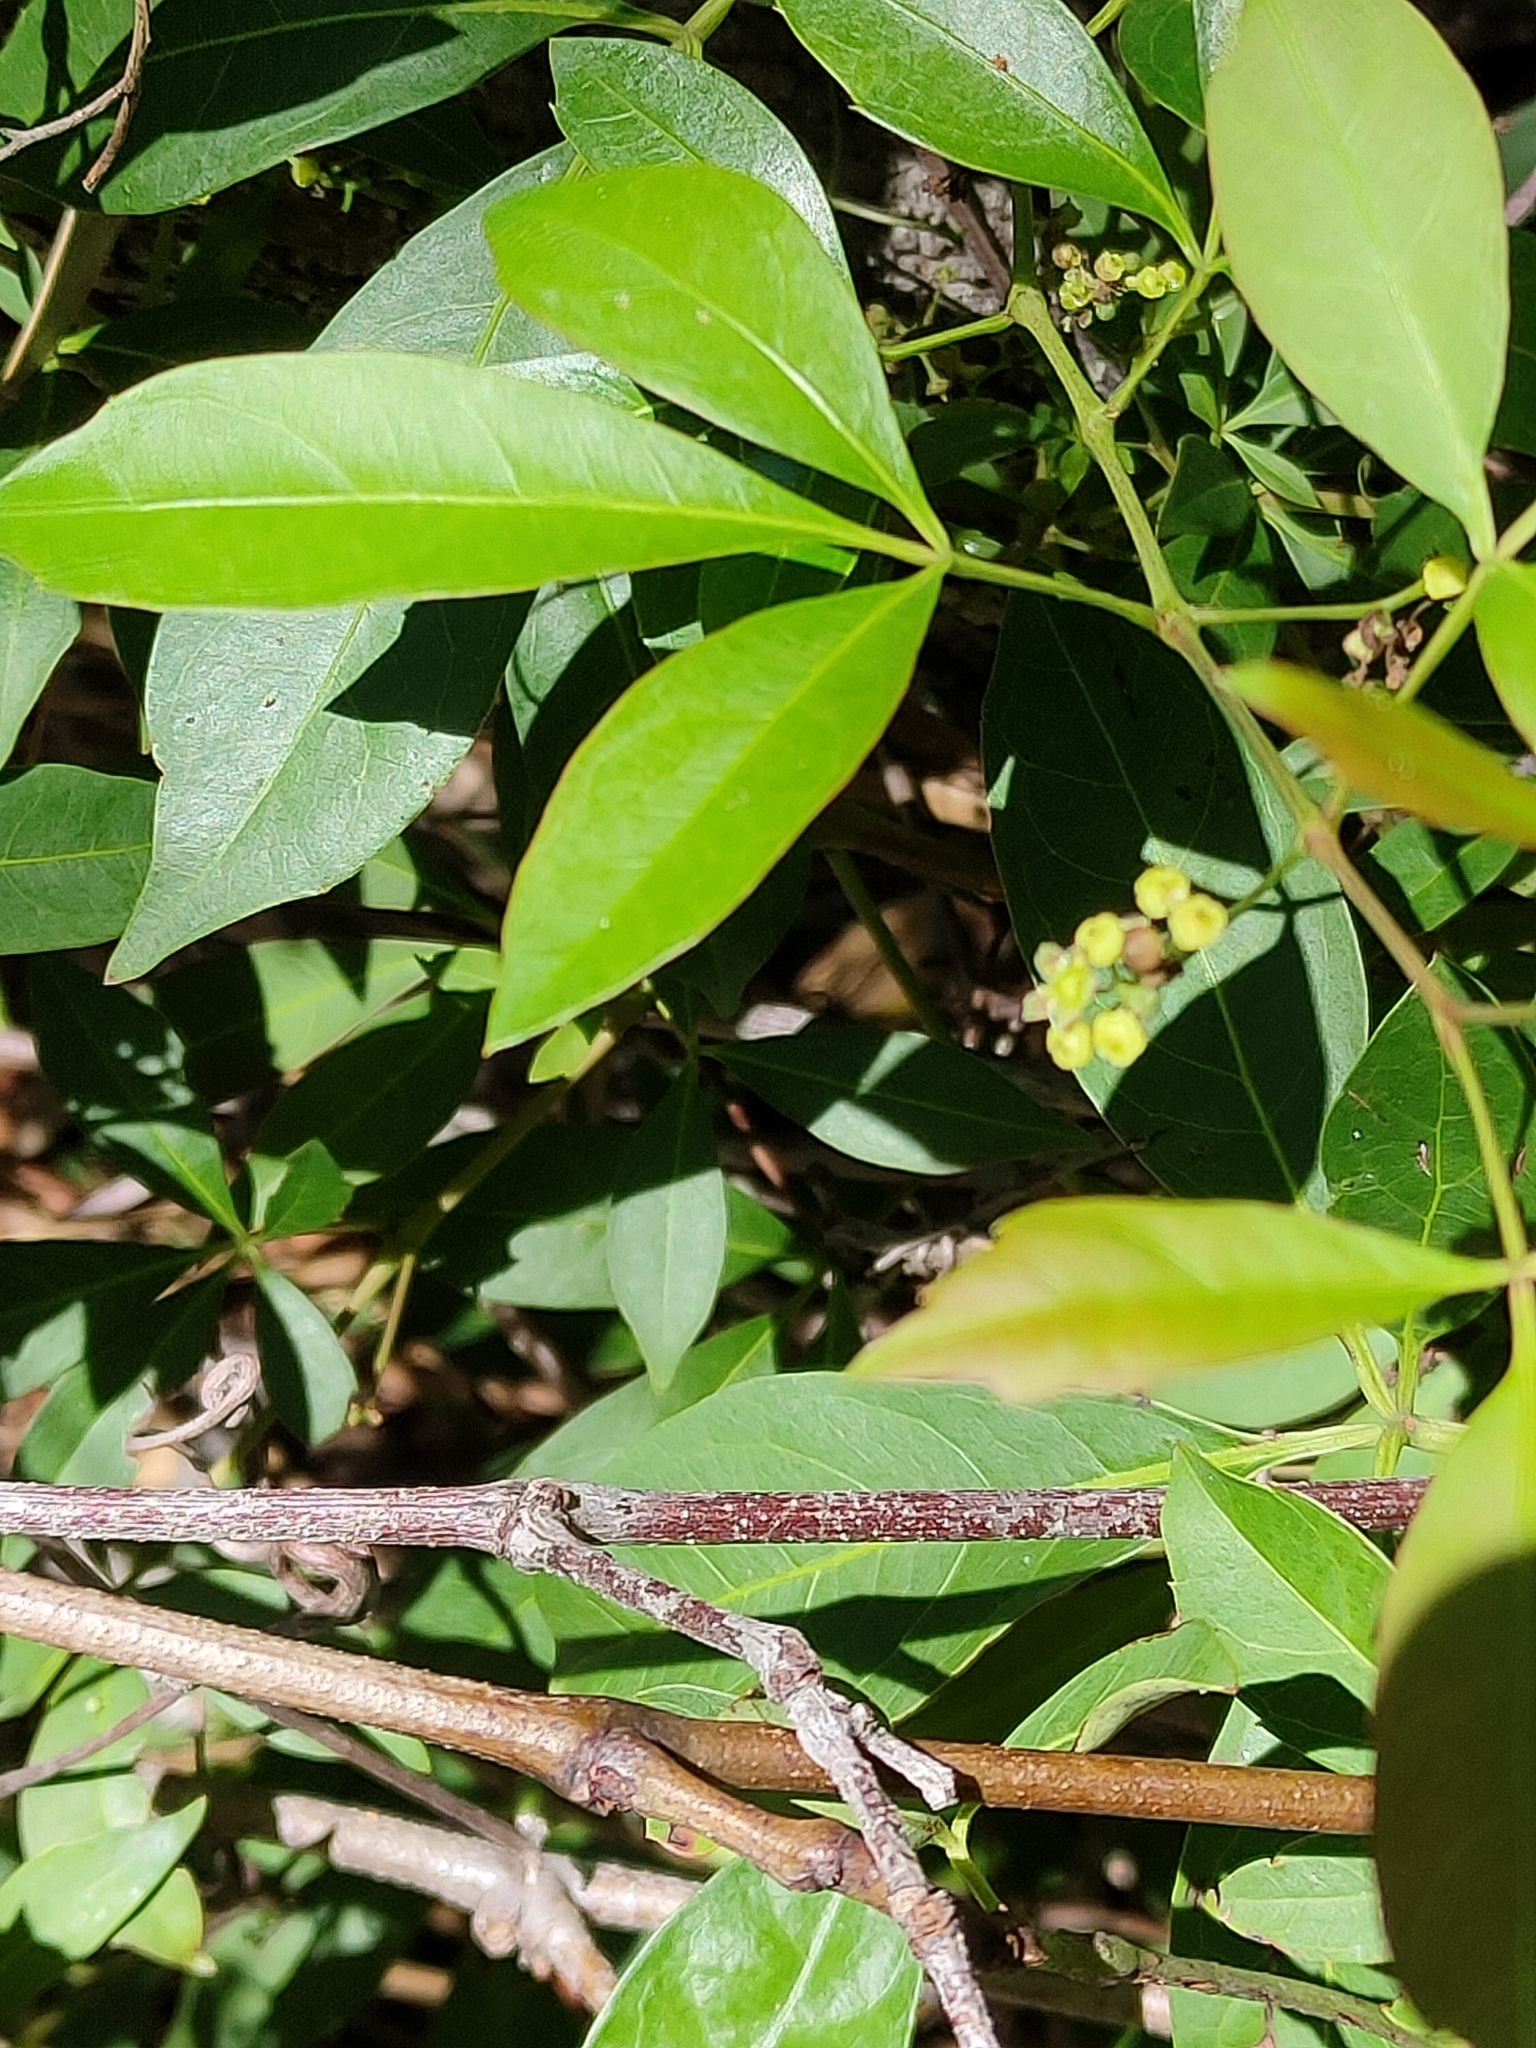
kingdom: Plantae
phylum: Tracheophyta
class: Magnoliopsida
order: Vitales
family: Vitaceae
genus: Clematicissus
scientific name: Clematicissus opaca
